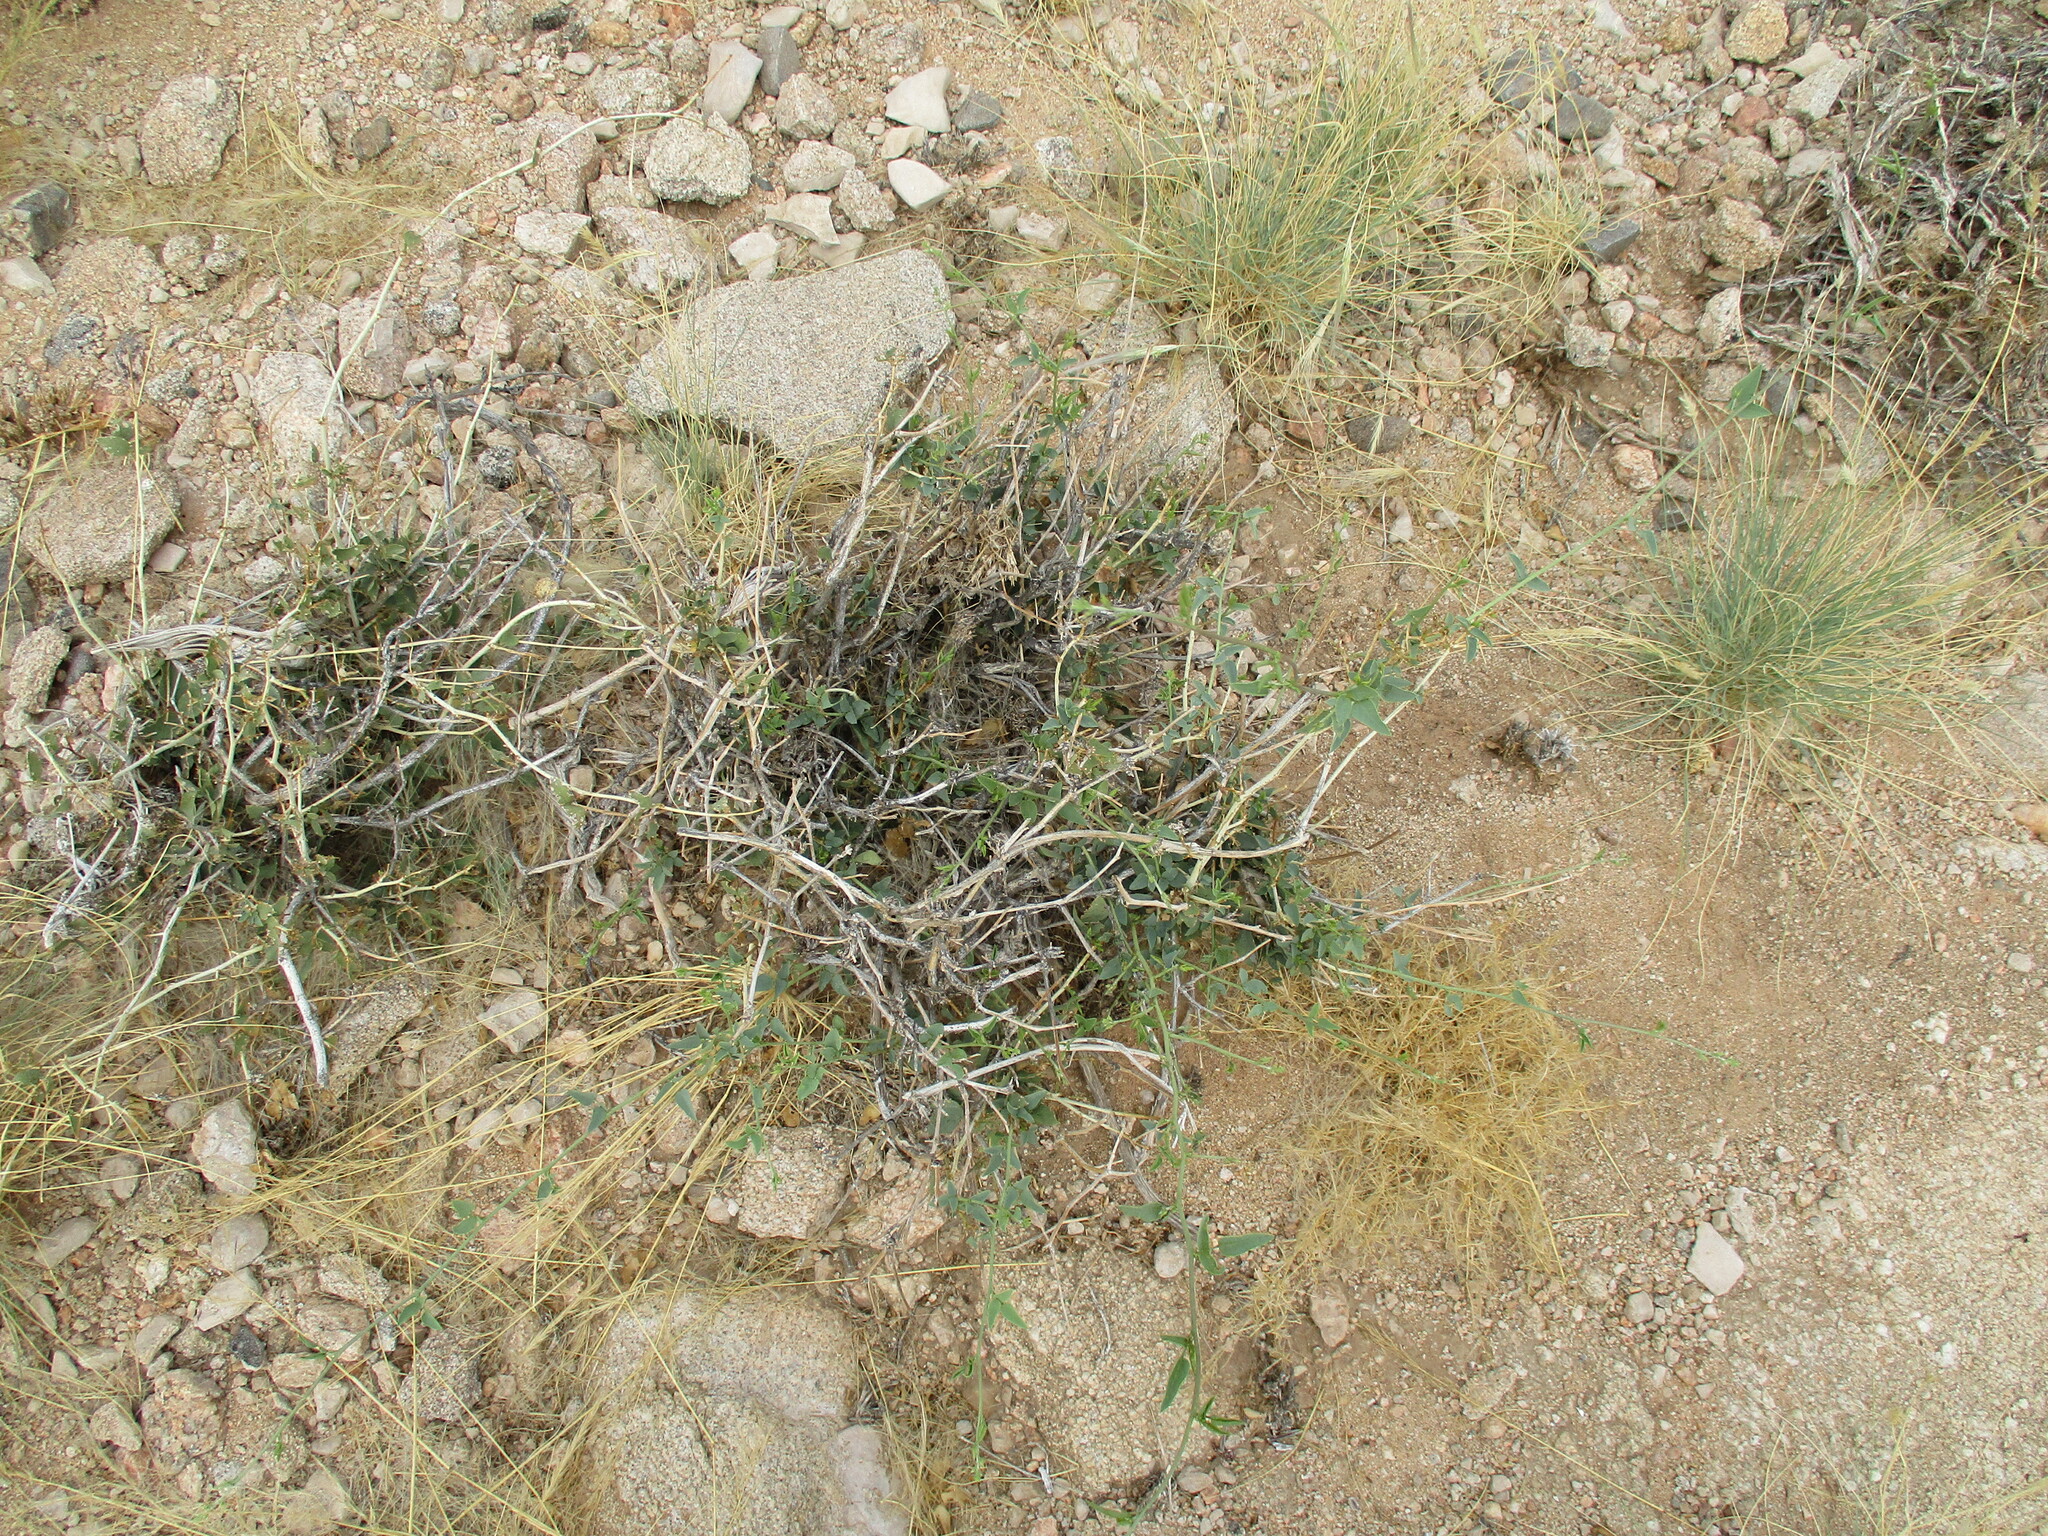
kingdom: Plantae
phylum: Tracheophyta
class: Magnoliopsida
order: Fabales
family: Fabaceae
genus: Otoptera
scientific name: Otoptera burchellii
